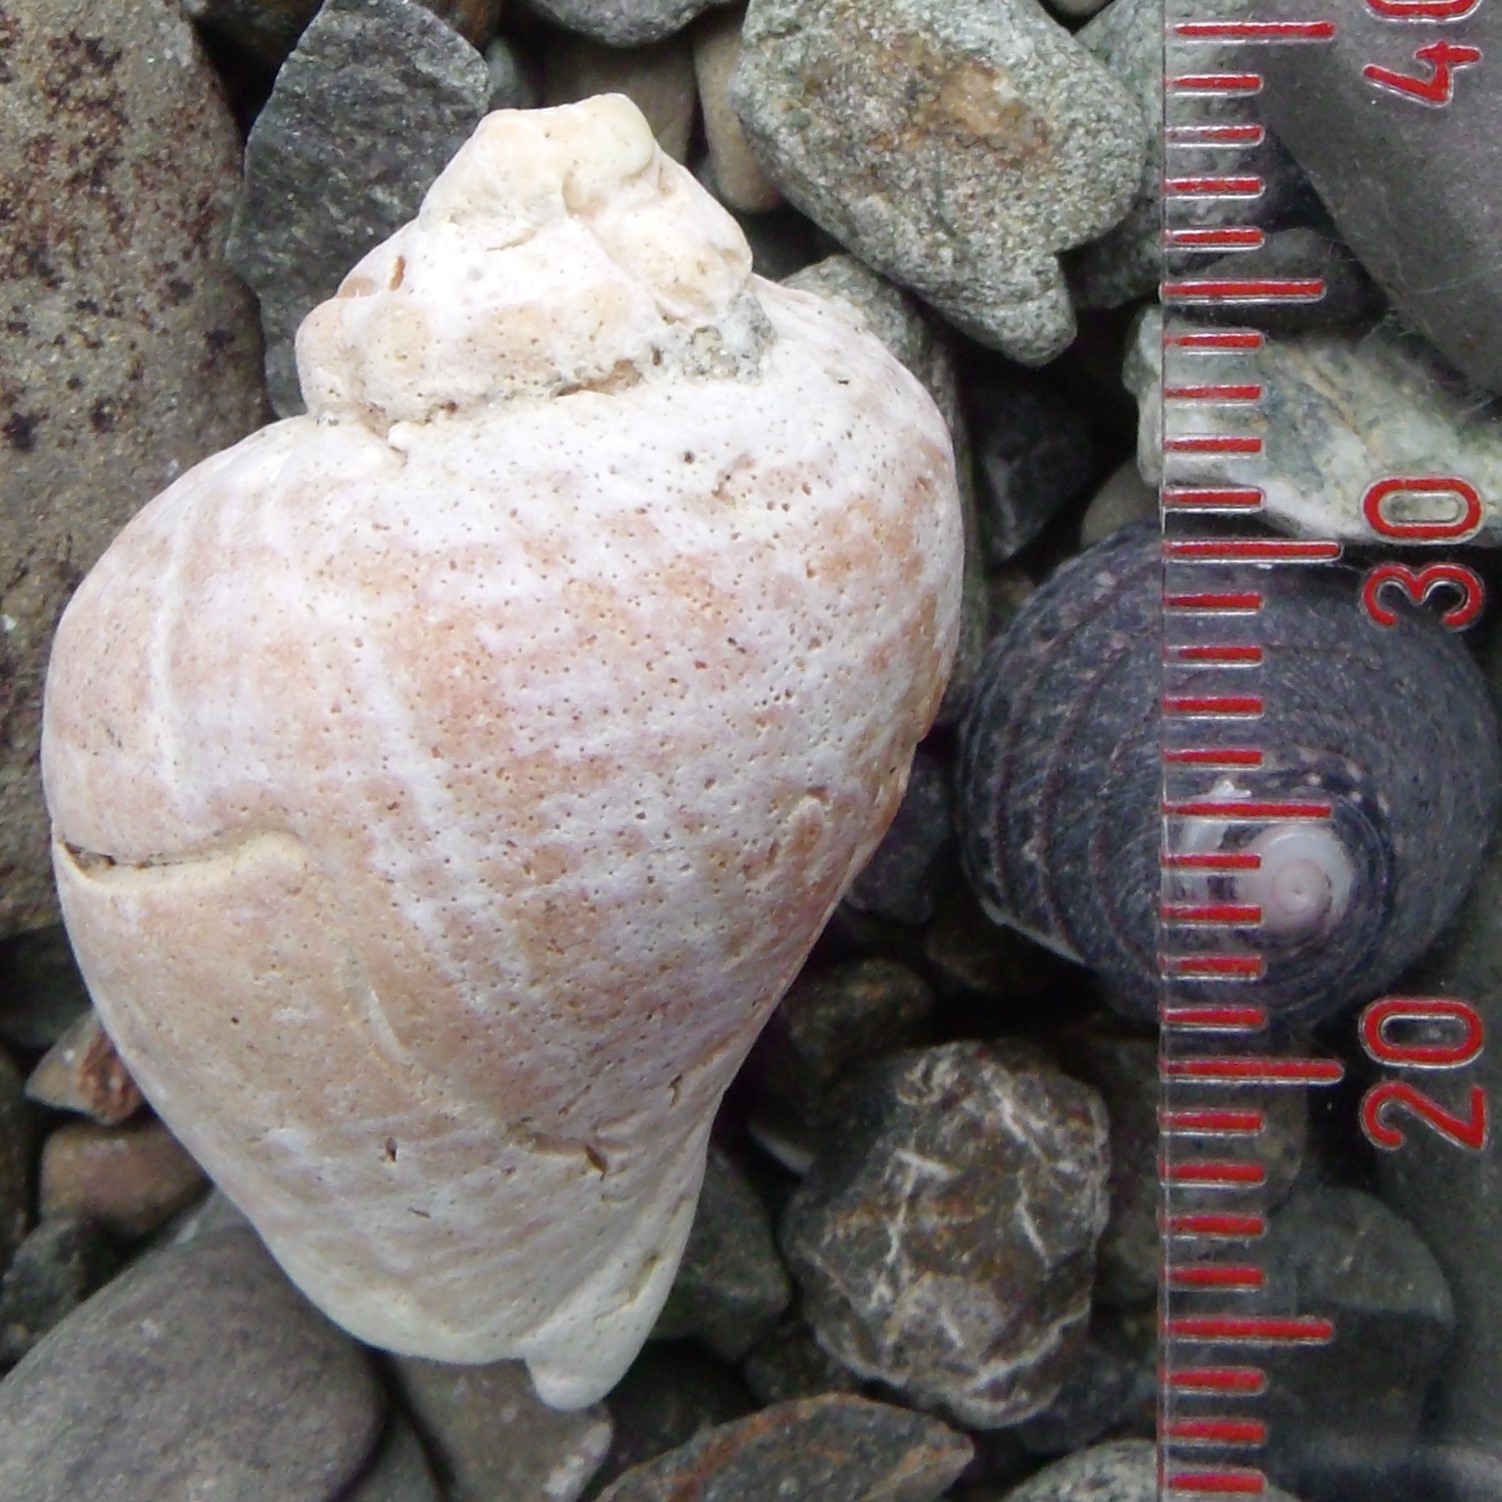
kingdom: Animalia
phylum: Mollusca
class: Gastropoda
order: Neogastropoda
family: Muricidae
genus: Haustrum
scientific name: Haustrum haustorium
